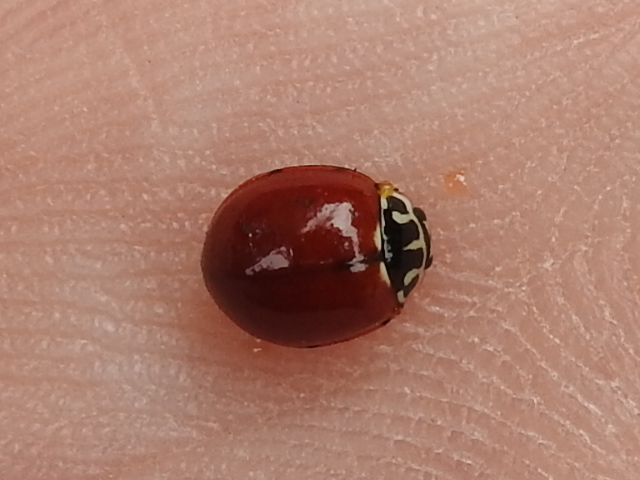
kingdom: Animalia
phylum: Arthropoda
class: Insecta
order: Coleoptera
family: Coccinellidae
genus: Cycloneda
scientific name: Cycloneda polita
